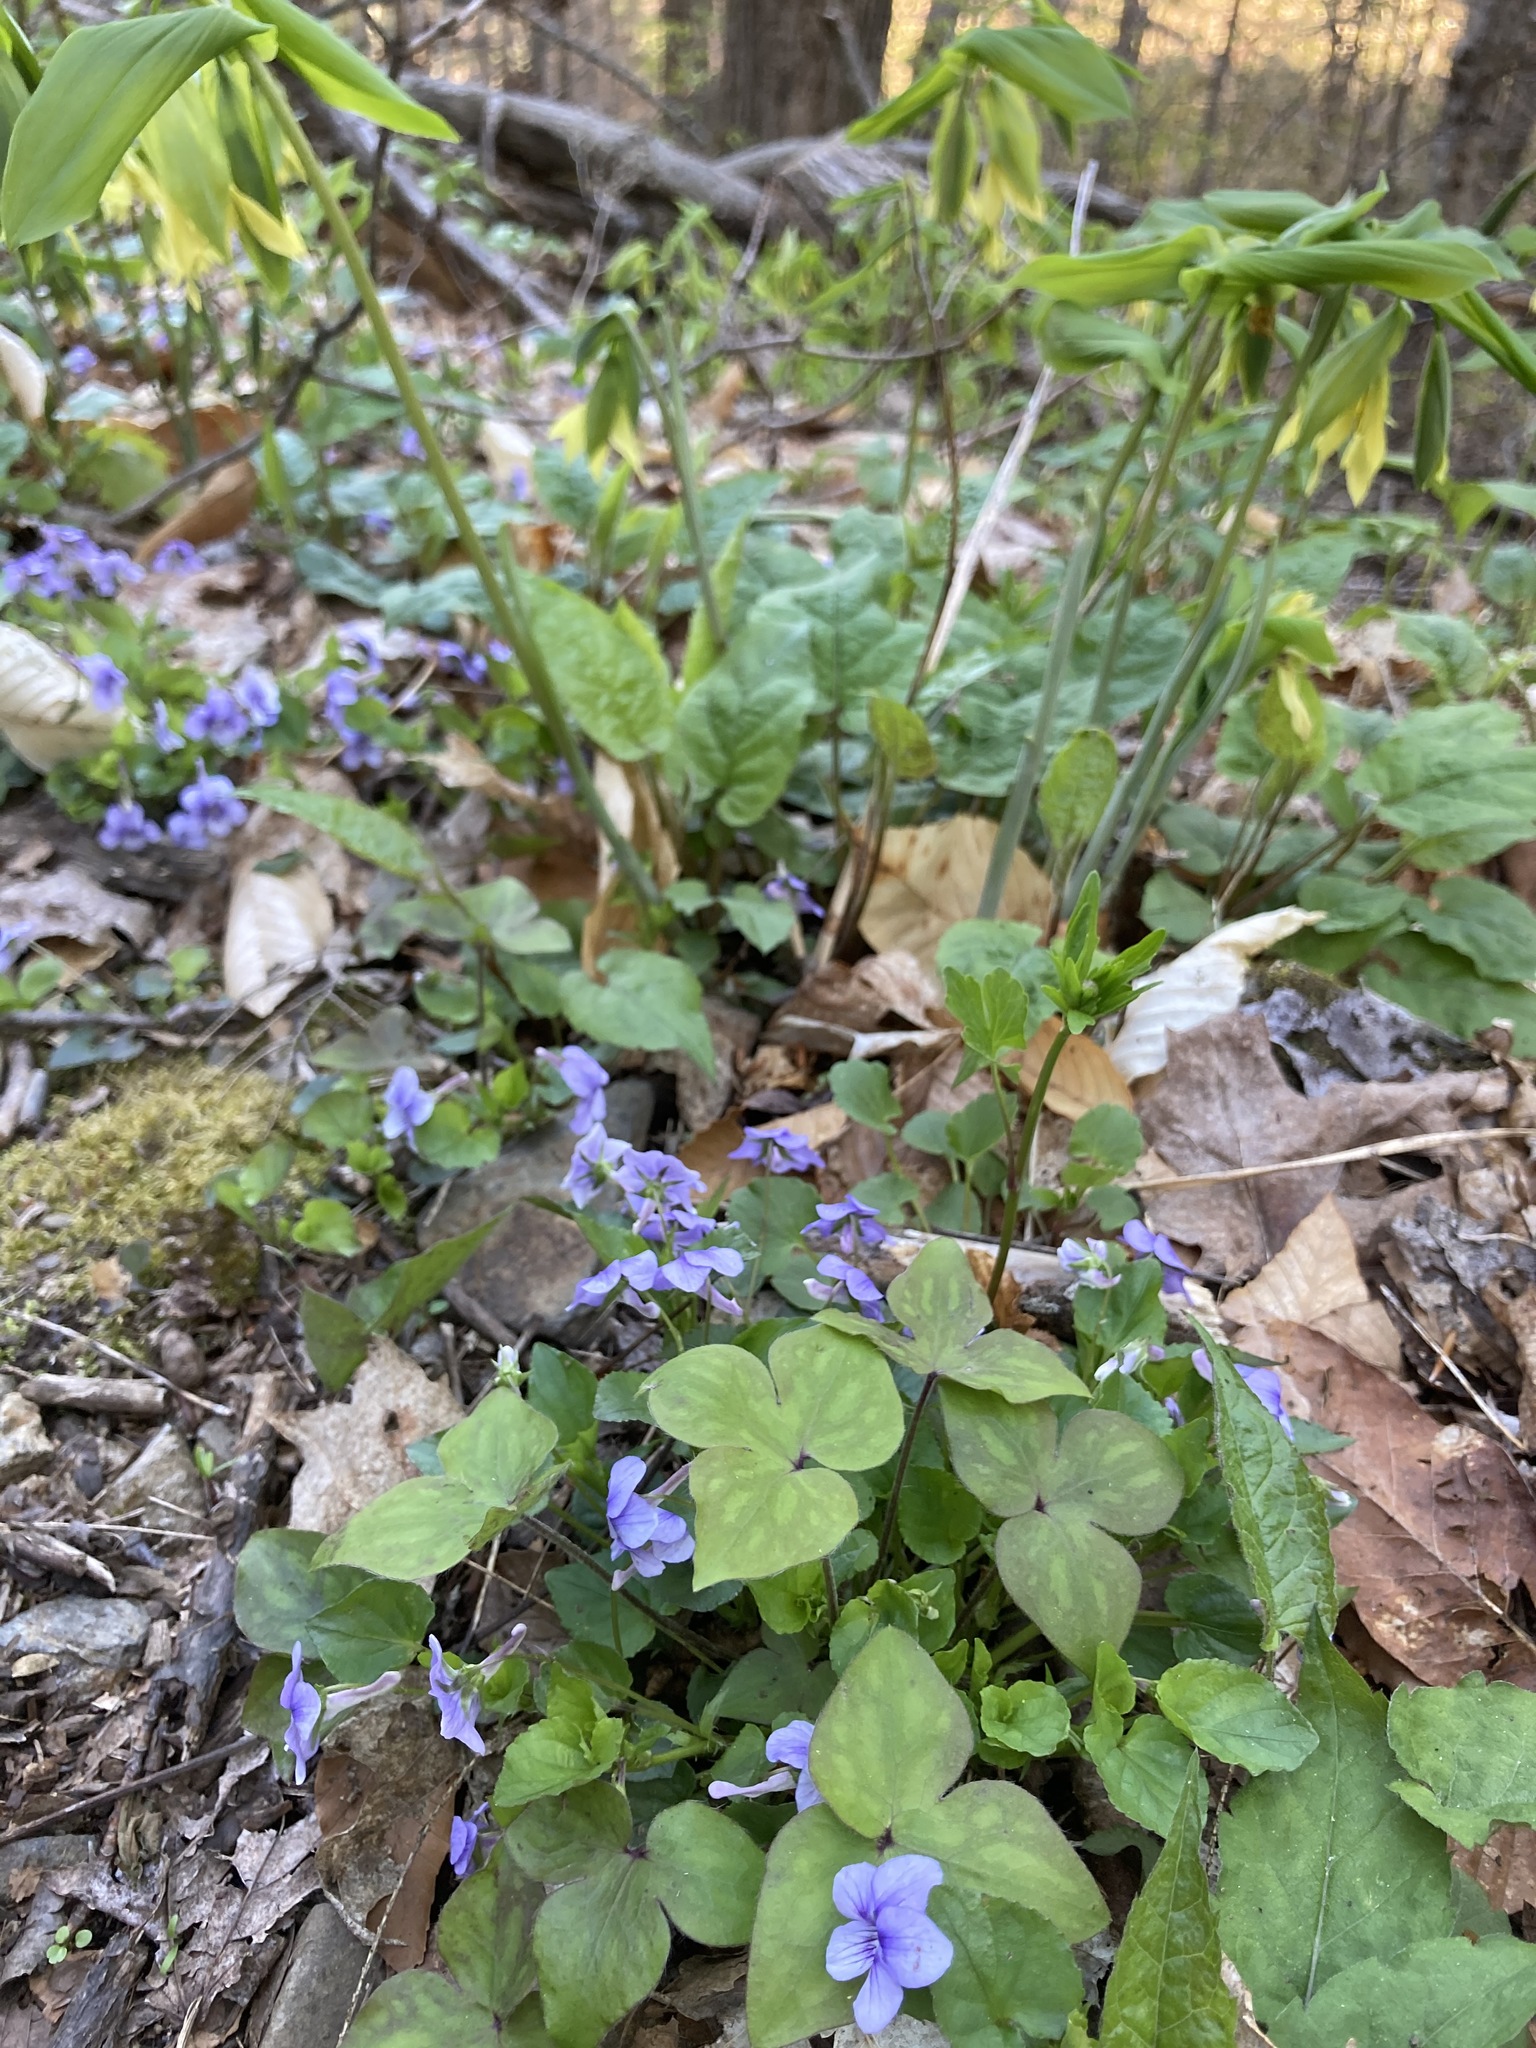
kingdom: Plantae
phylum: Tracheophyta
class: Magnoliopsida
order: Malpighiales
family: Violaceae
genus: Viola
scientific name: Viola rostrata
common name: Long-spur violet
